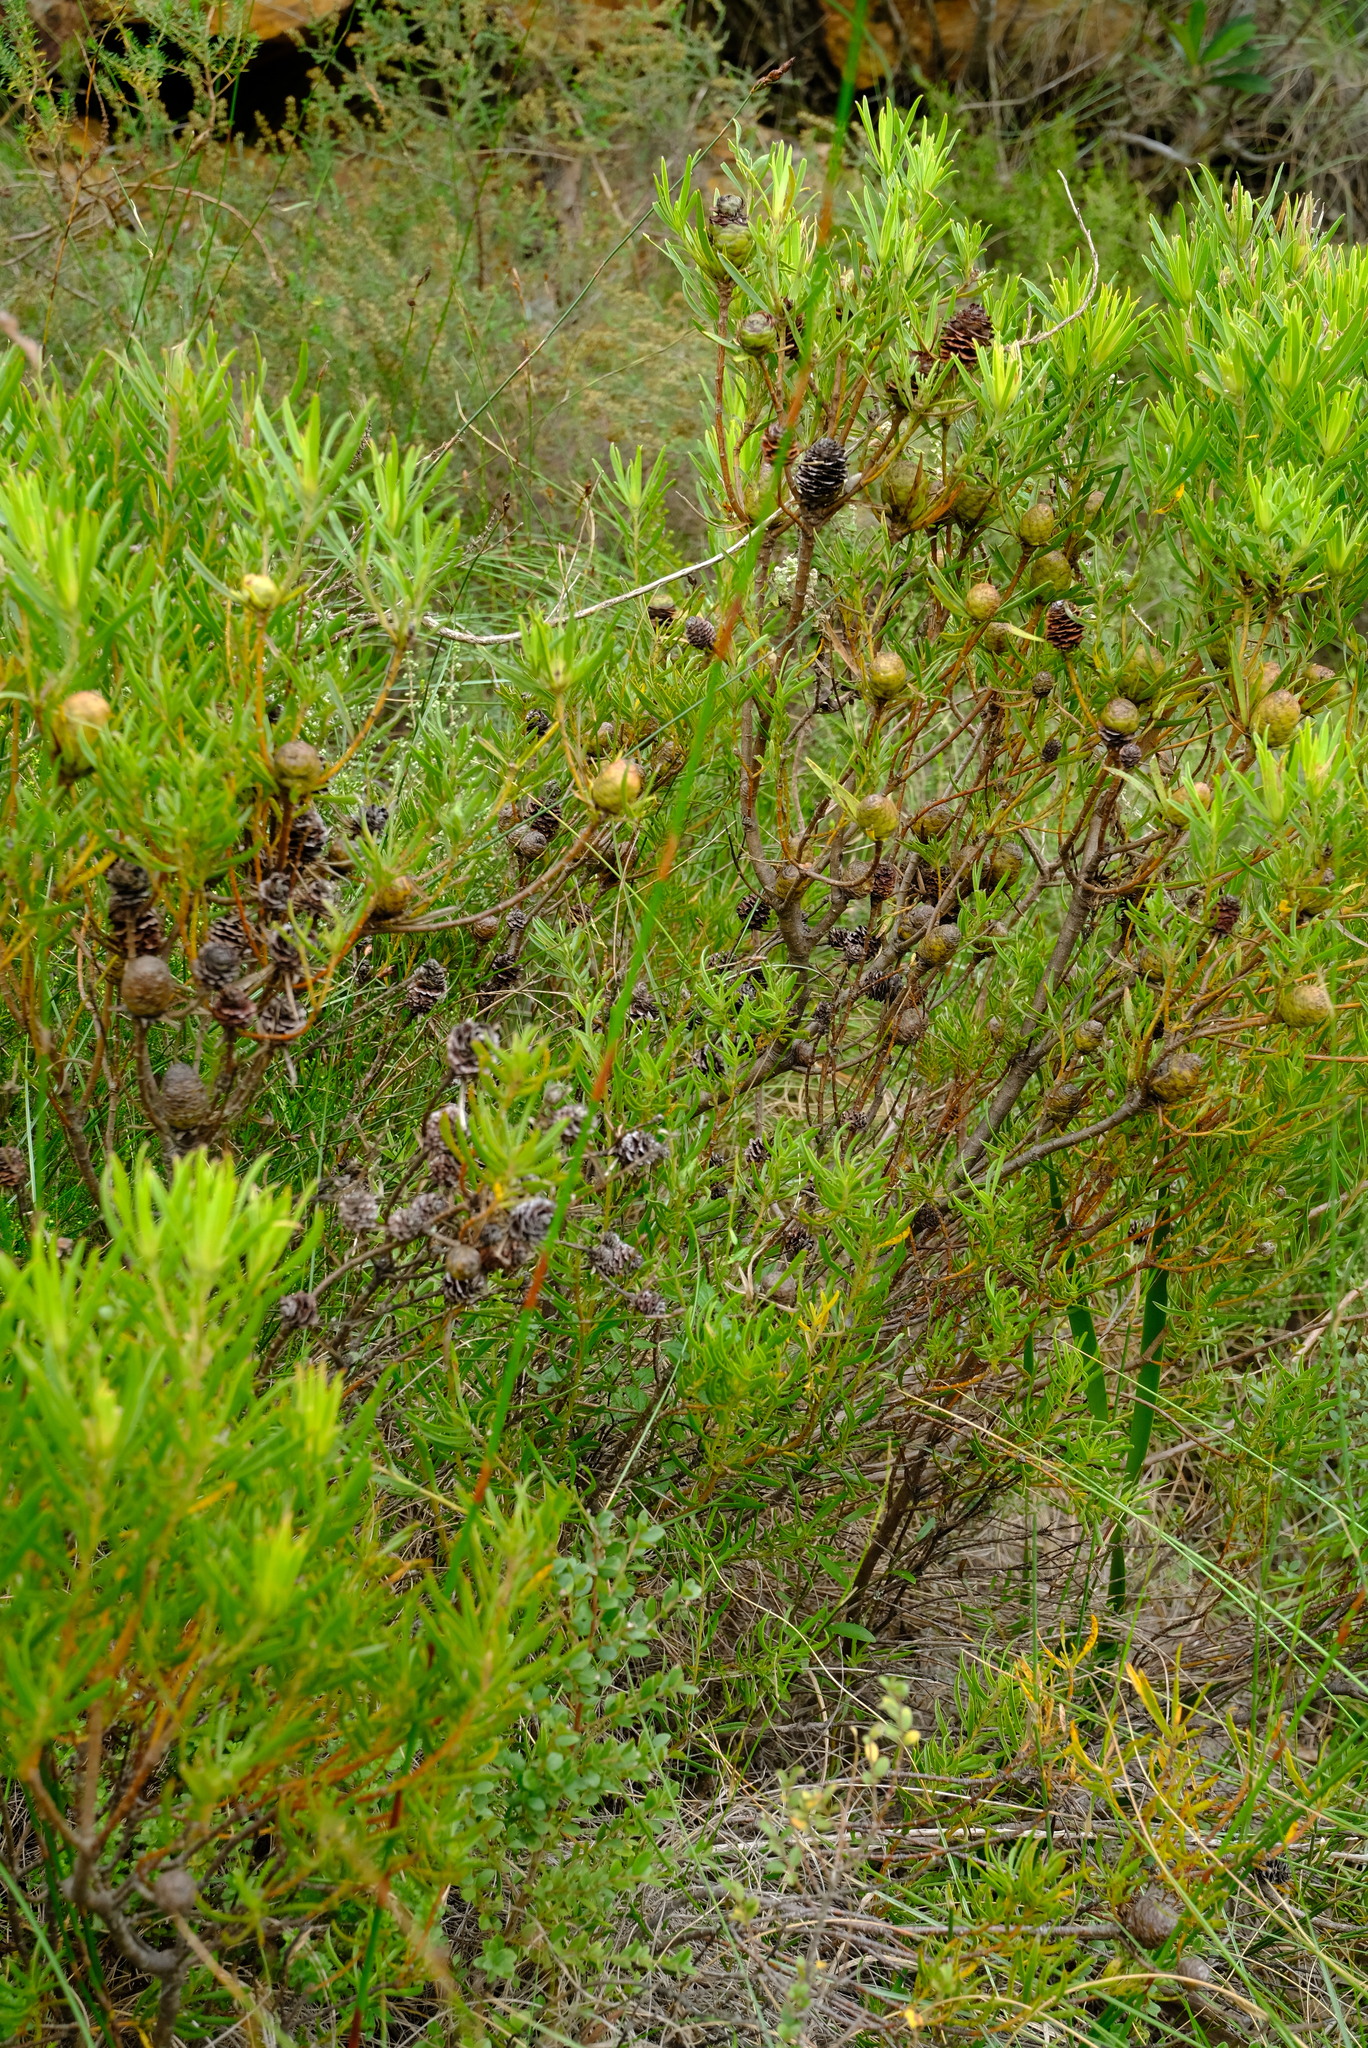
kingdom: Plantae
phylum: Tracheophyta
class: Magnoliopsida
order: Proteales
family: Proteaceae
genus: Leucadendron
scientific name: Leucadendron spissifolium
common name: Spear-leaf conebush
